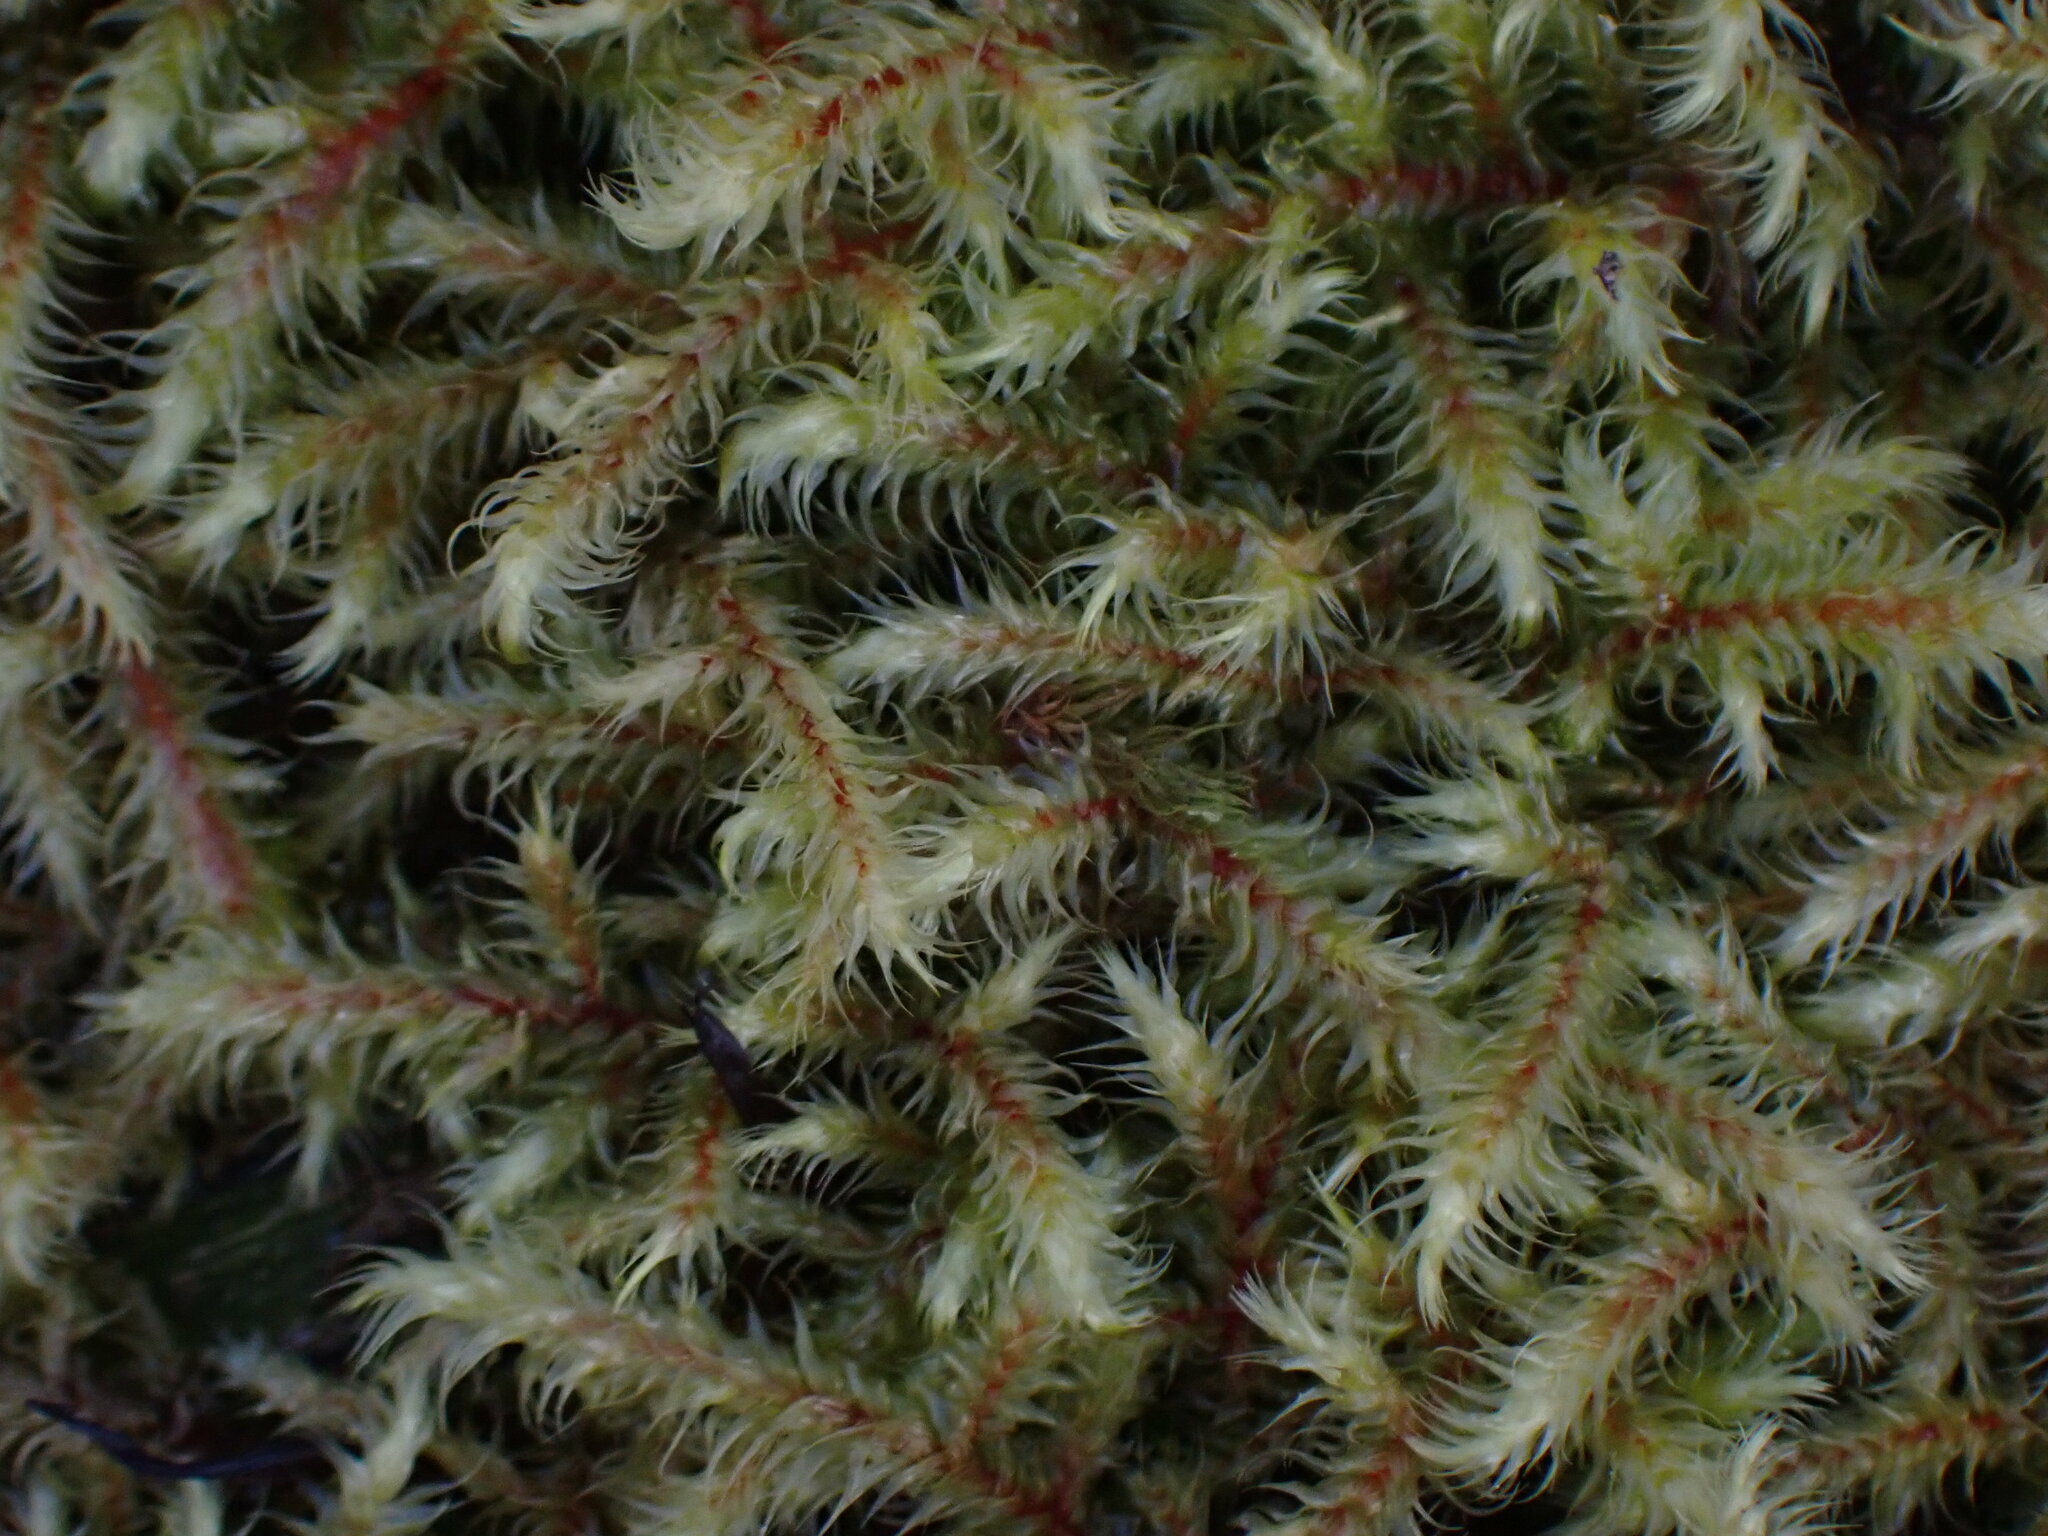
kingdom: Plantae
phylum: Bryophyta
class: Bryopsida
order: Hypnales
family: Hylocomiaceae
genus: Rhytidiadelphus
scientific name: Rhytidiadelphus loreus
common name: Lanky moss
